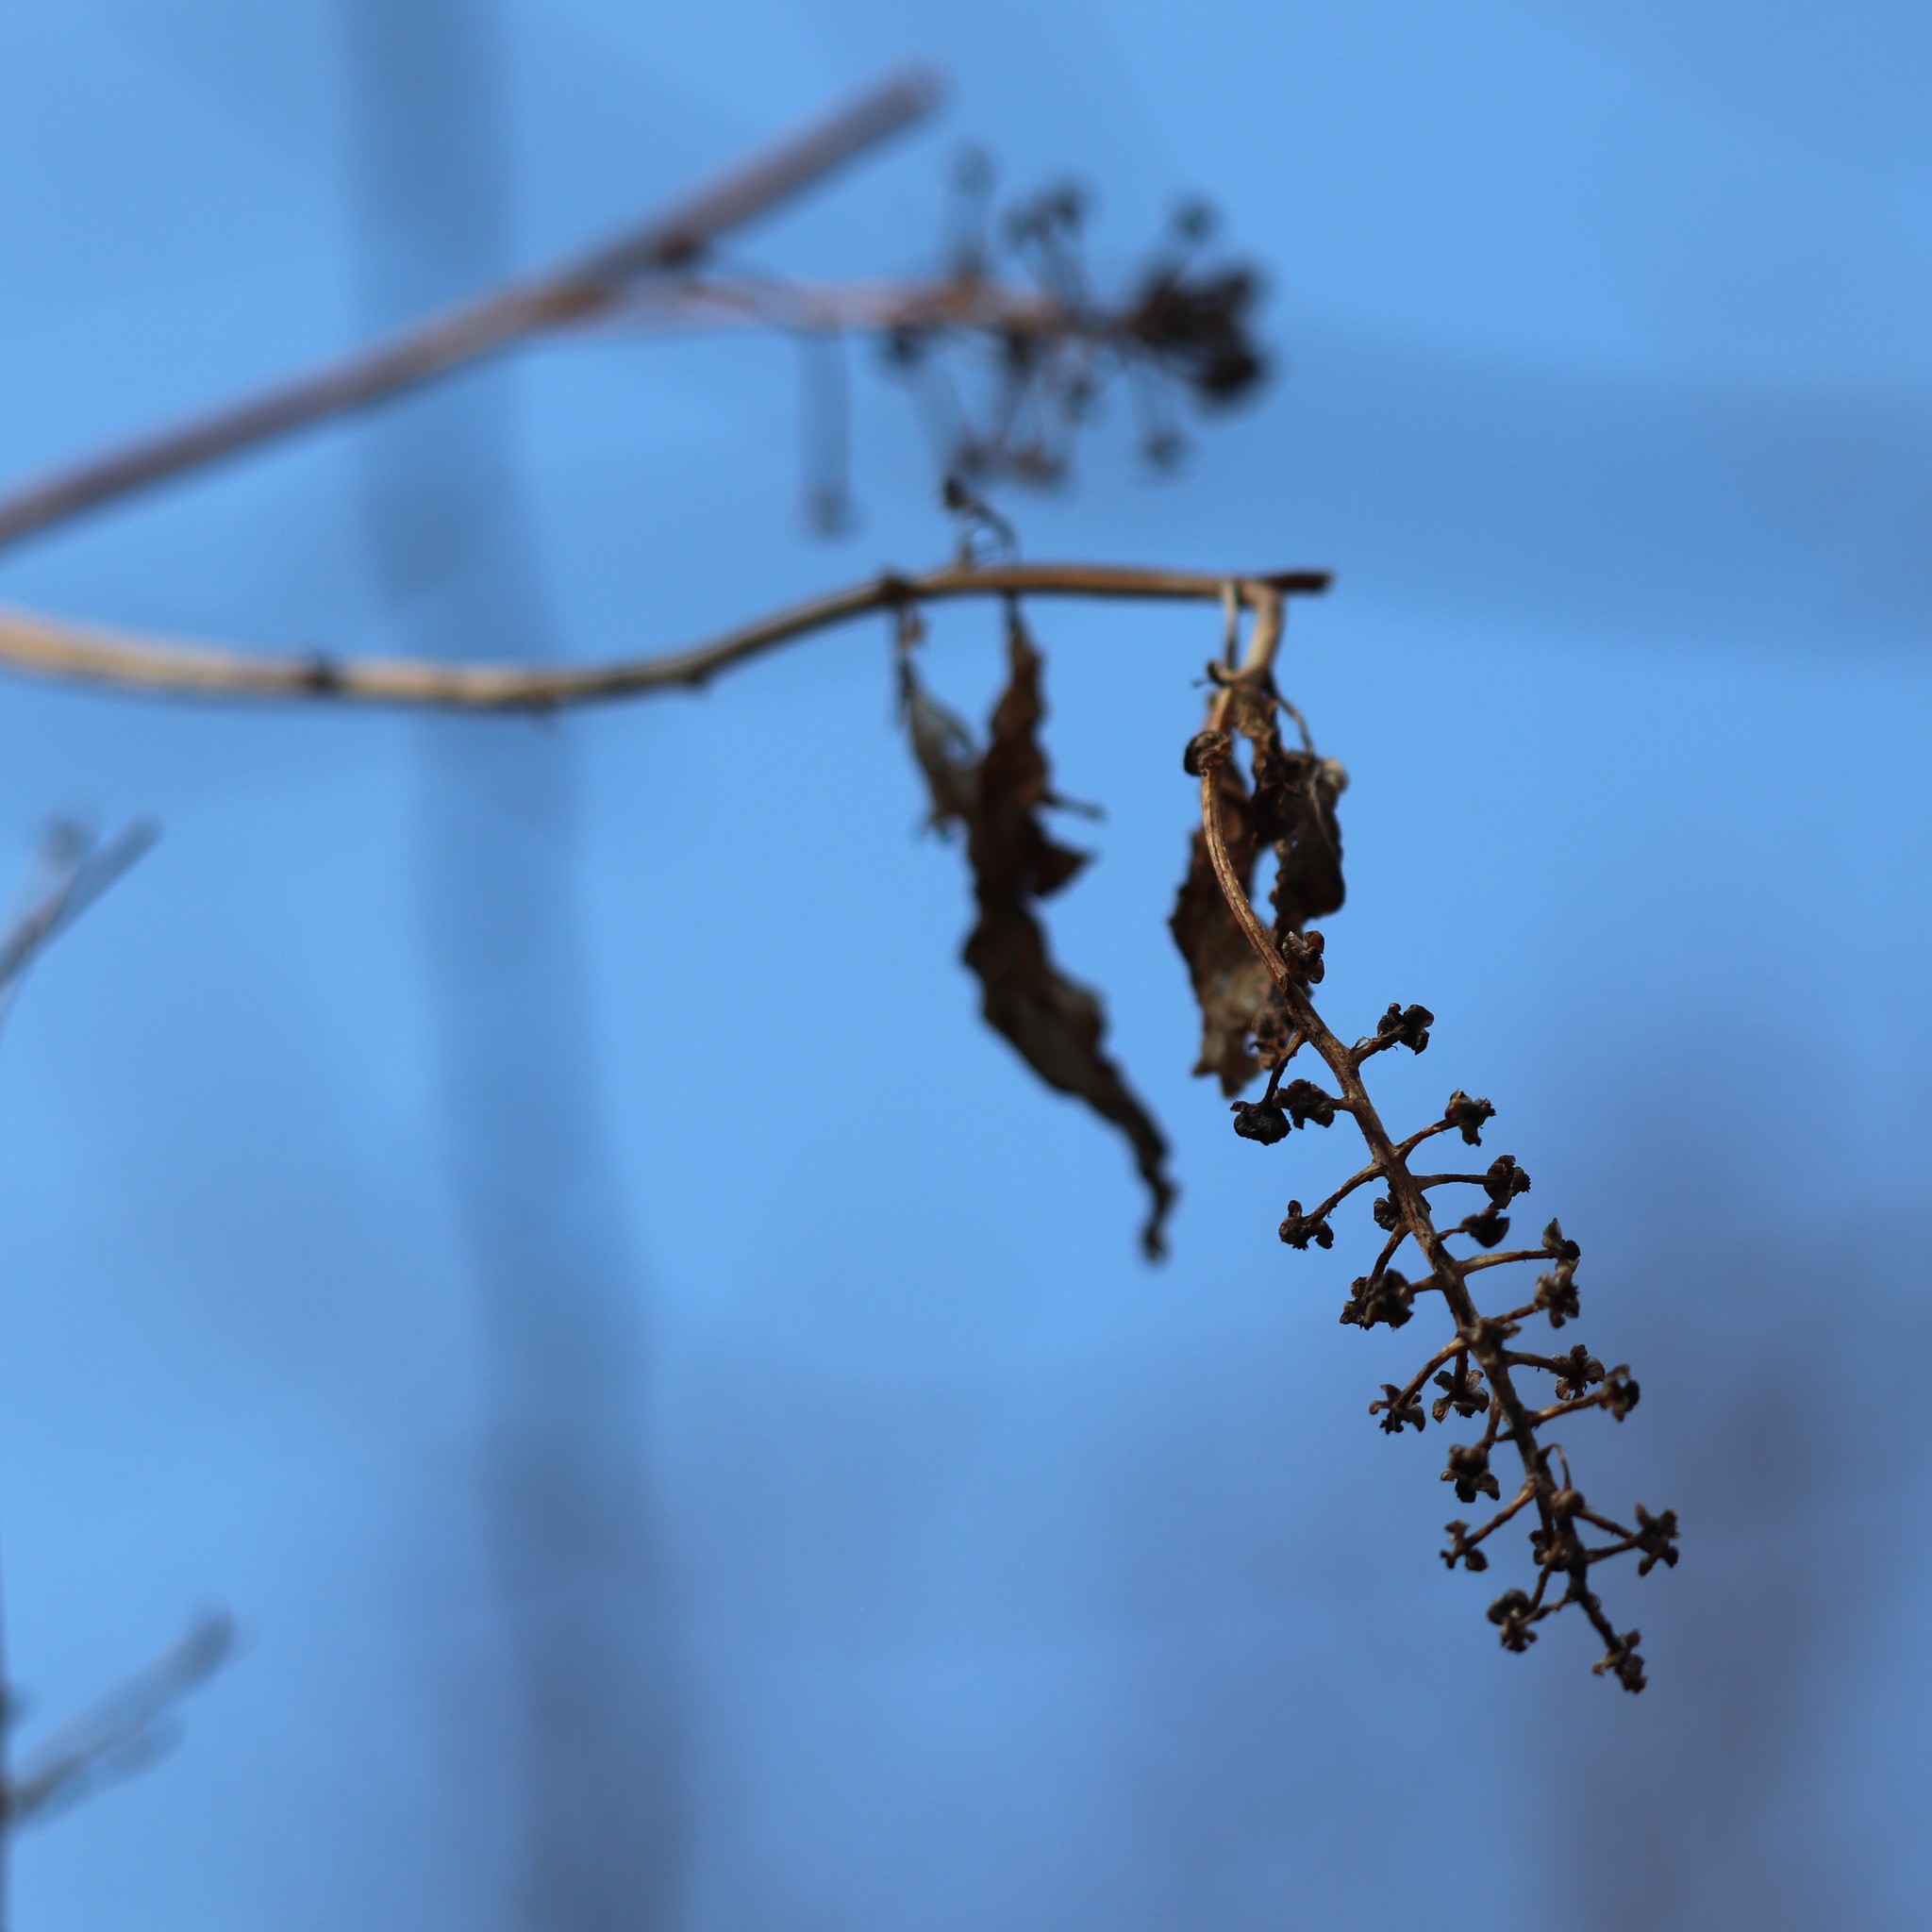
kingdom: Plantae
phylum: Tracheophyta
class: Magnoliopsida
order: Caryophyllales
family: Phytolaccaceae
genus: Phytolacca
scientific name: Phytolacca americana
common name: American pokeweed
